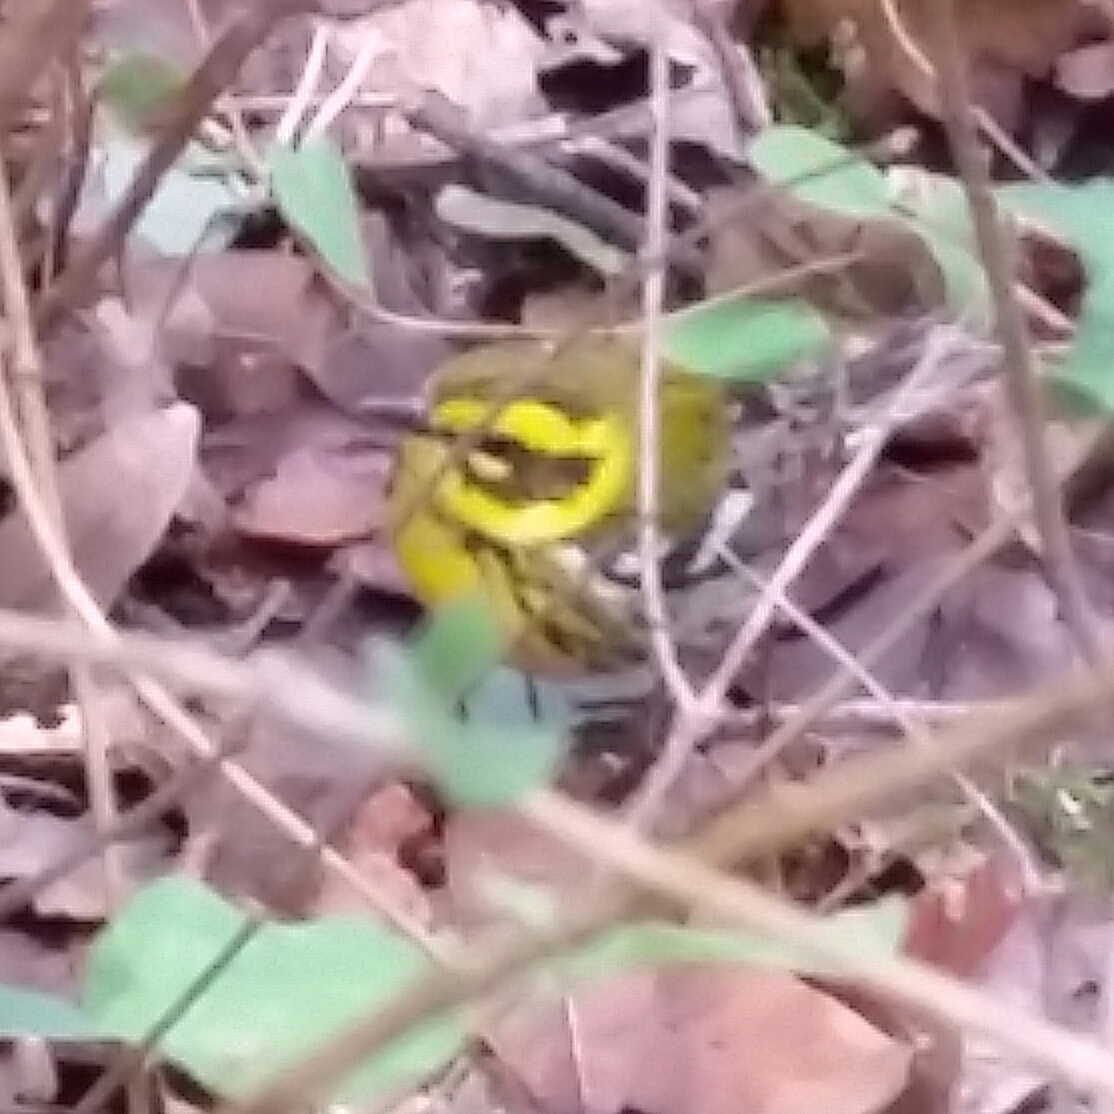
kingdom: Animalia
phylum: Chordata
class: Aves
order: Passeriformes
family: Parulidae
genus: Setophaga
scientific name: Setophaga townsendi
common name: Townsend's warbler
